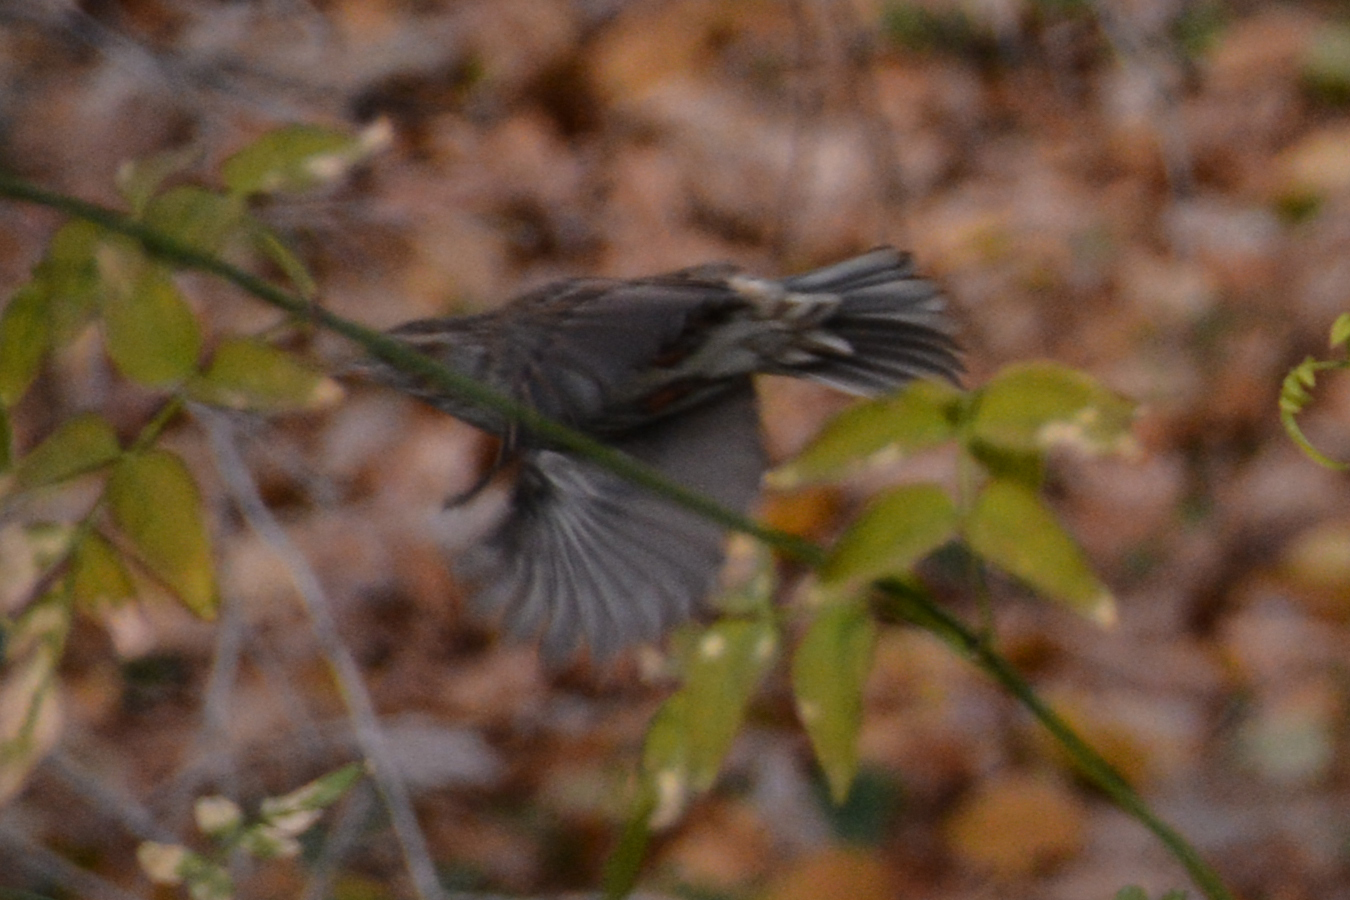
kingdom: Animalia
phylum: Chordata
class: Aves
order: Passeriformes
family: Prunellidae
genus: Prunella
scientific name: Prunella modularis
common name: Dunnock
